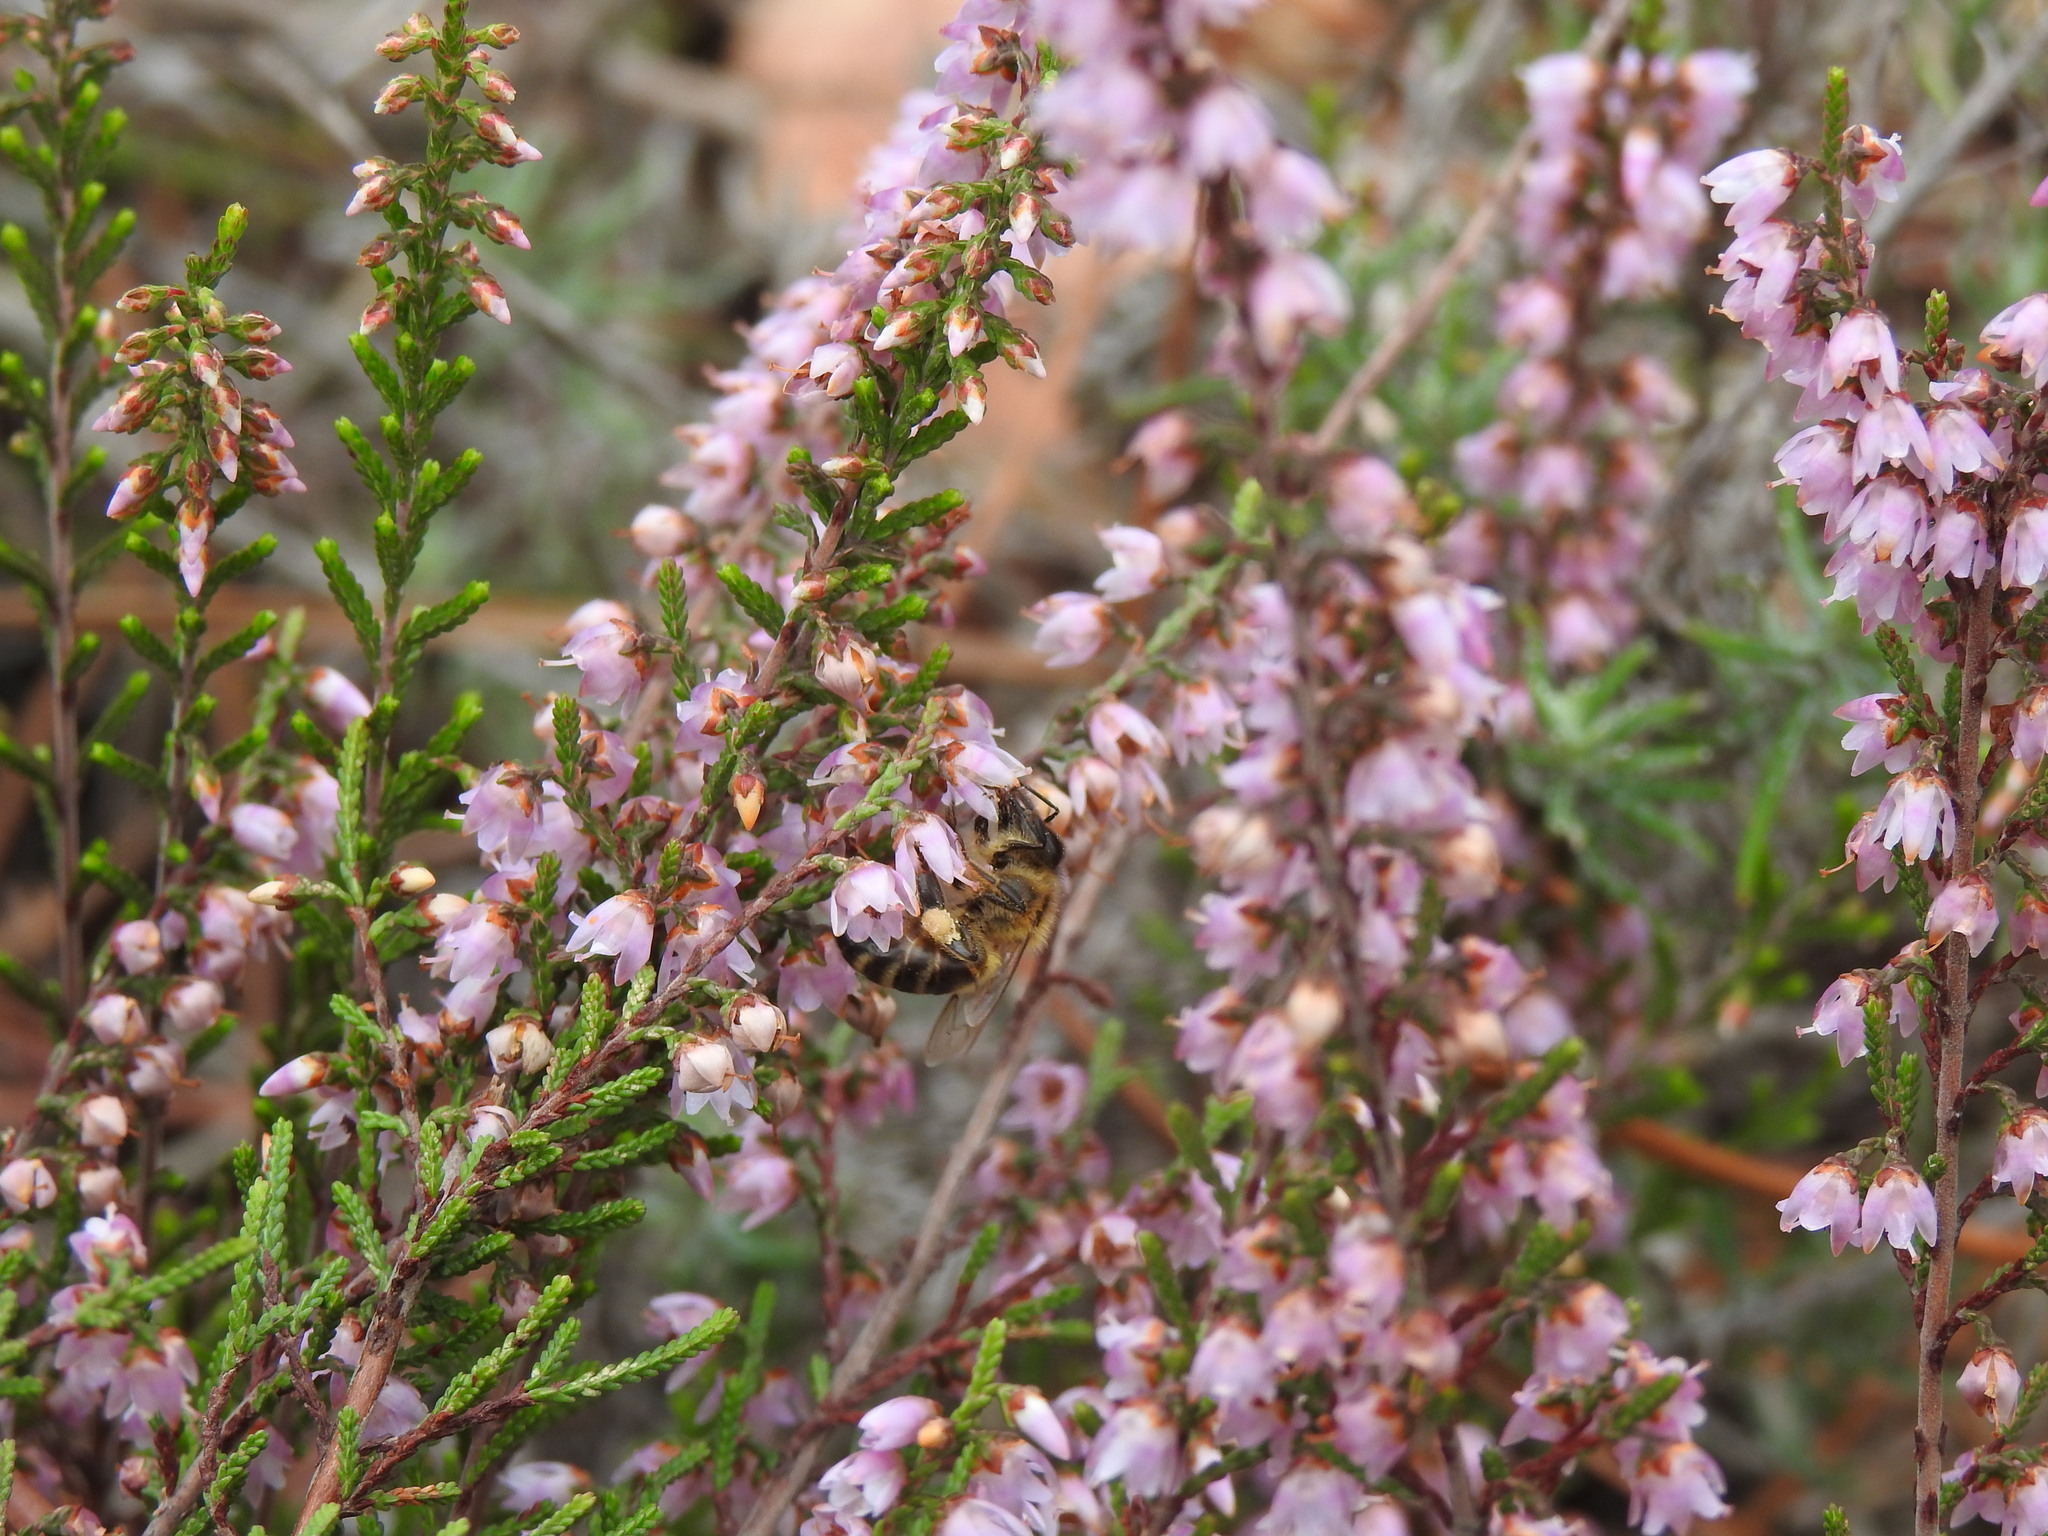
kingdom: Animalia
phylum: Arthropoda
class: Insecta
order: Hymenoptera
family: Apidae
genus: Apis
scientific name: Apis mellifera
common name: Honey bee
